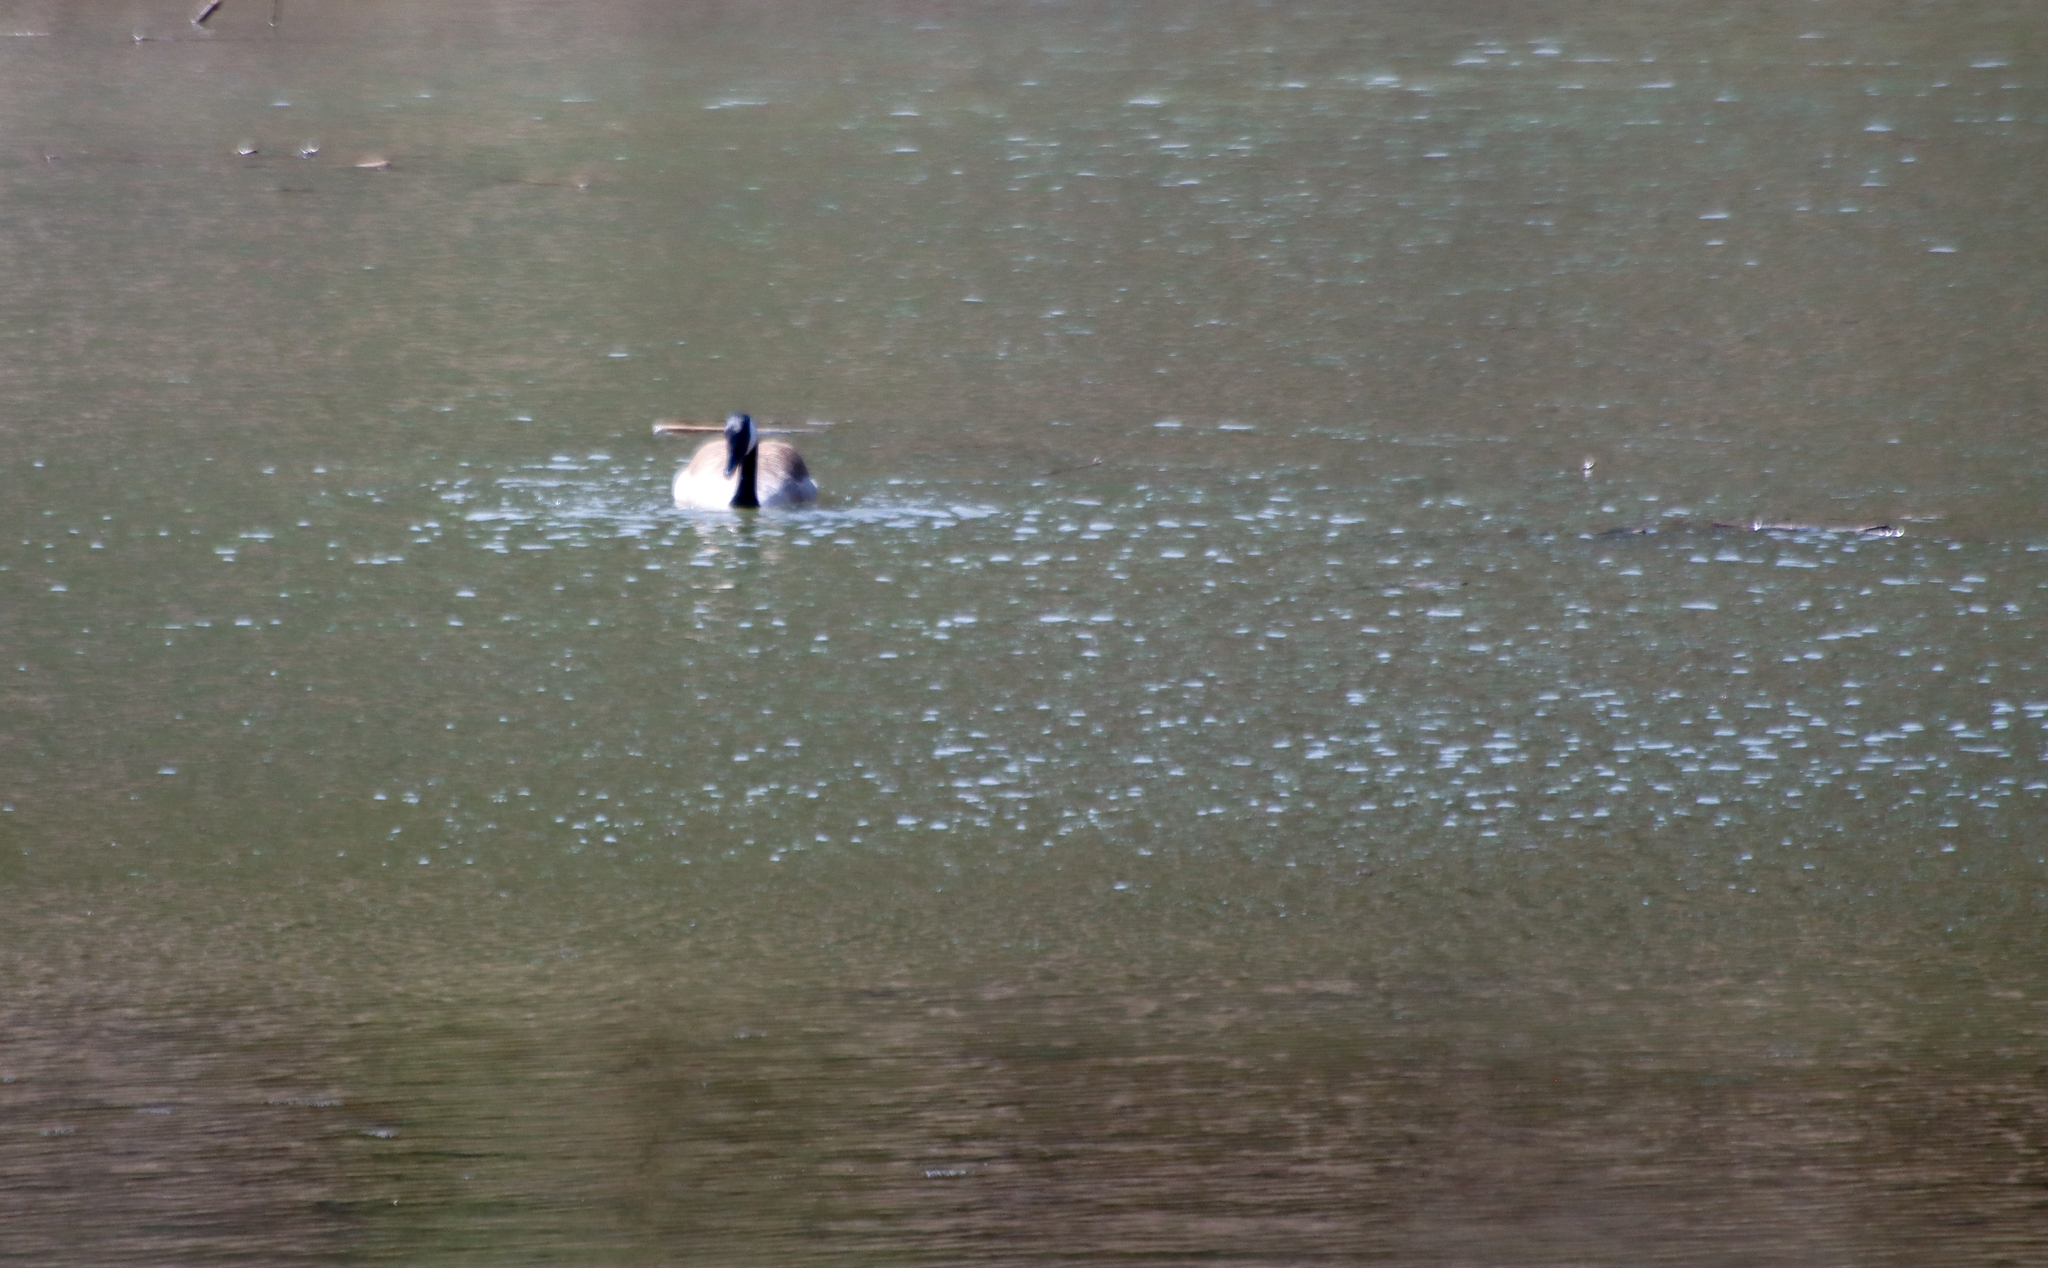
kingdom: Animalia
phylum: Chordata
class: Aves
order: Anseriformes
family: Anatidae
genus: Branta
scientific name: Branta canadensis
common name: Canada goose
